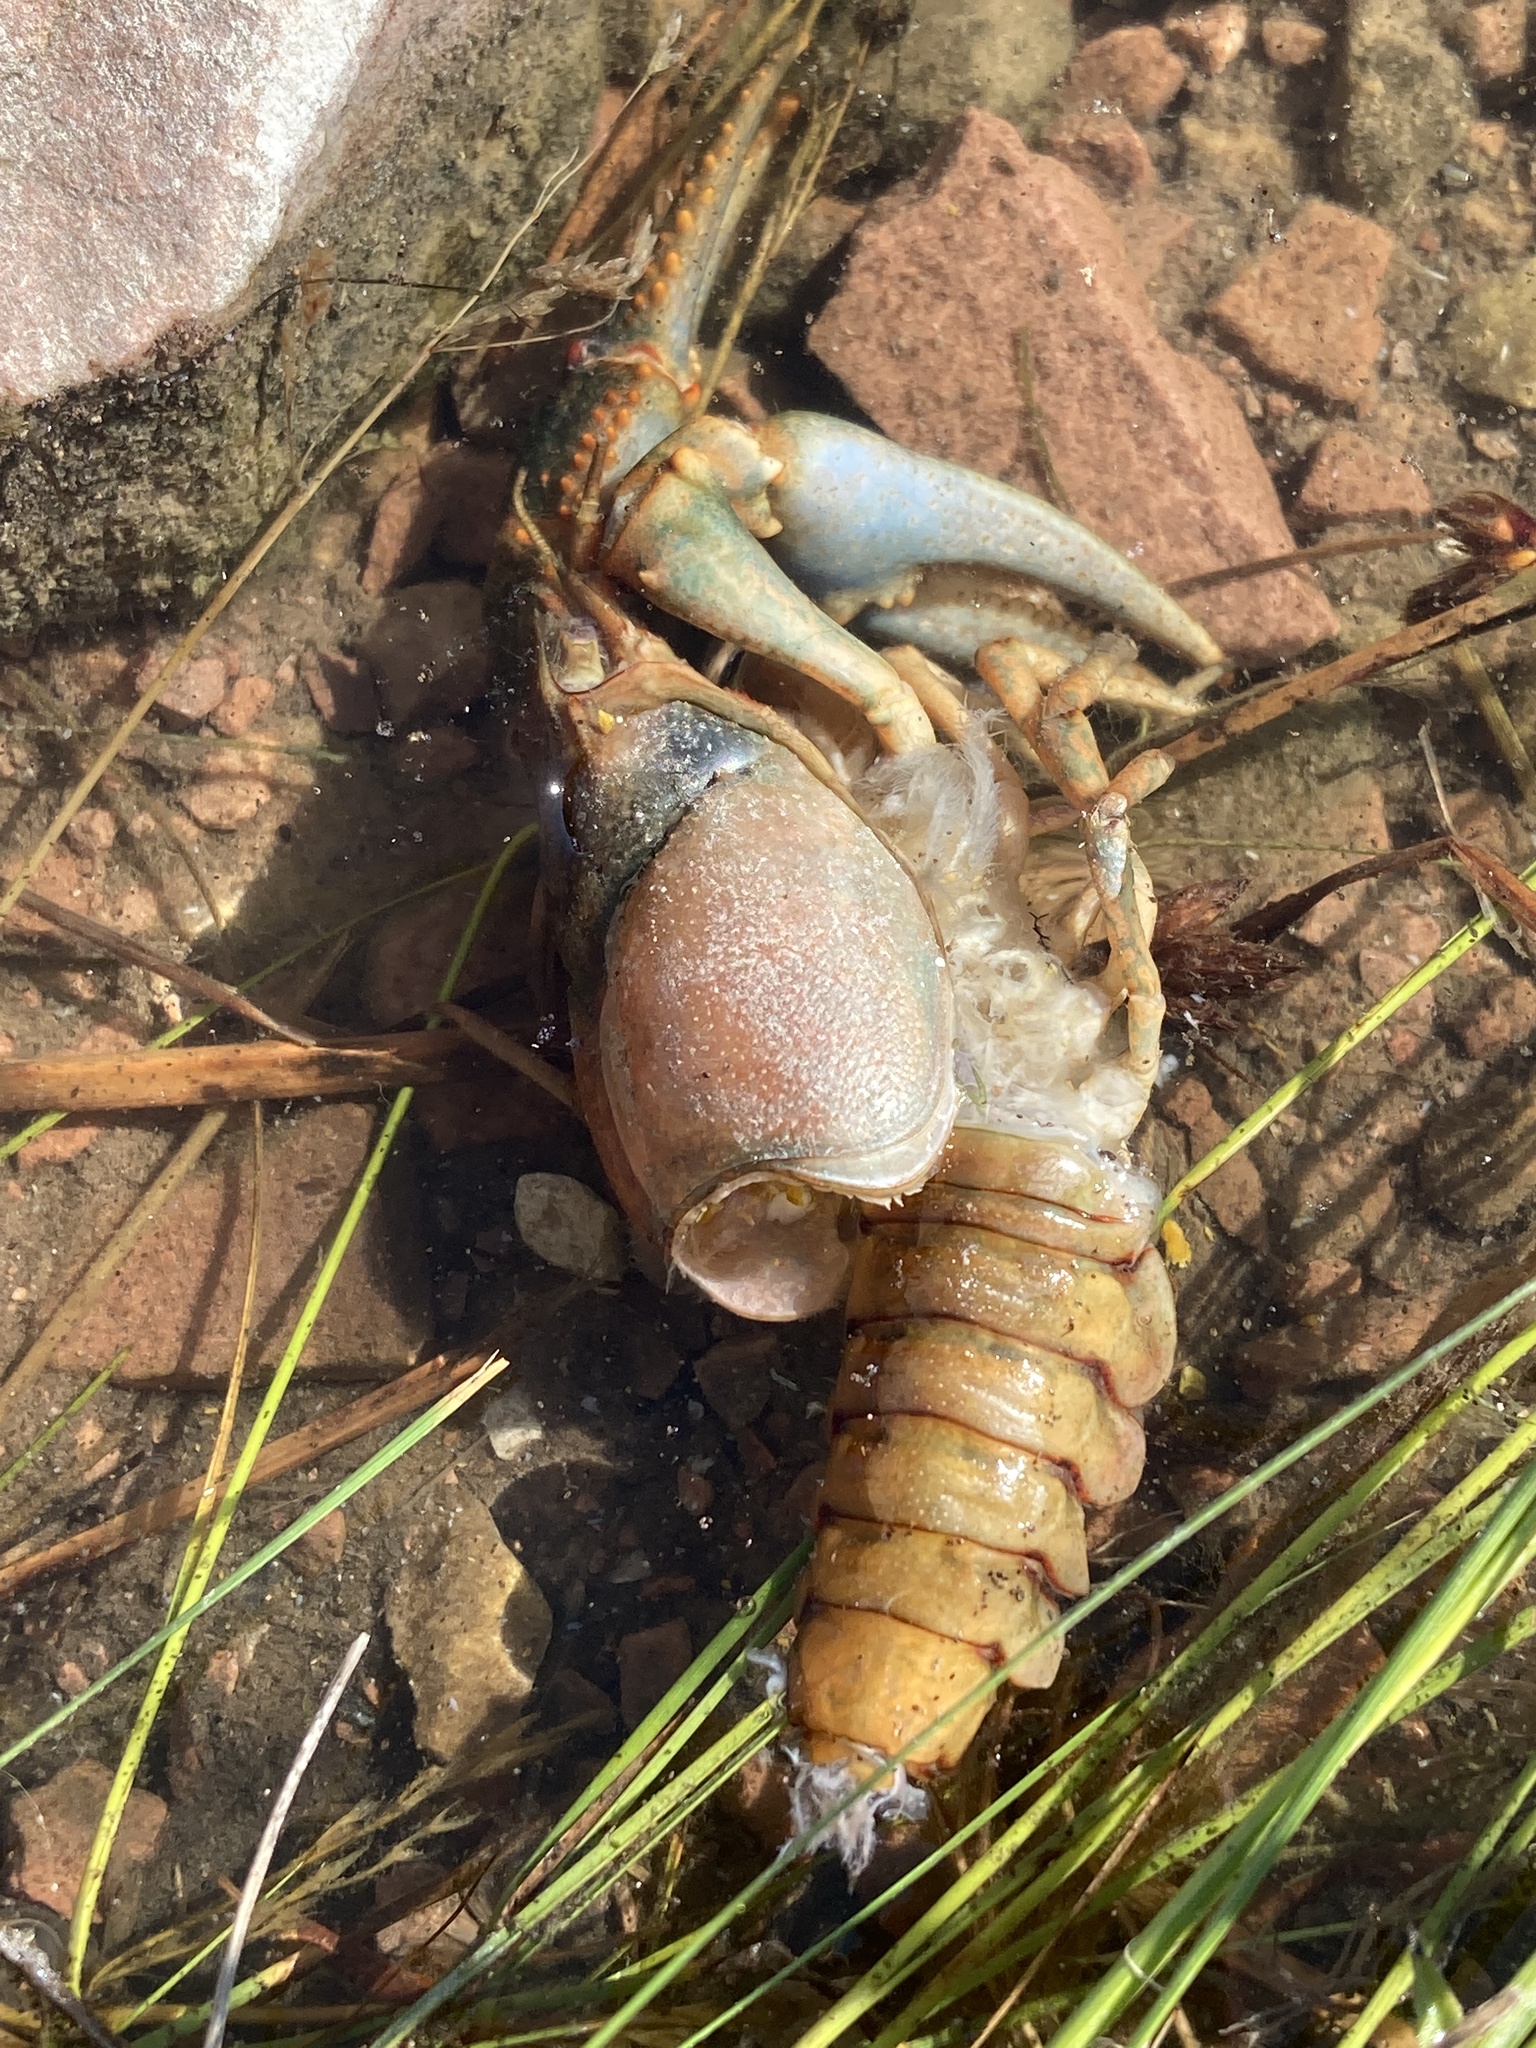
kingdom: Animalia
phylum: Arthropoda
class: Malacostraca
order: Decapoda
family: Cambaridae
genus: Faxonius
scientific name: Faxonius virilis
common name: Virile crayfish
